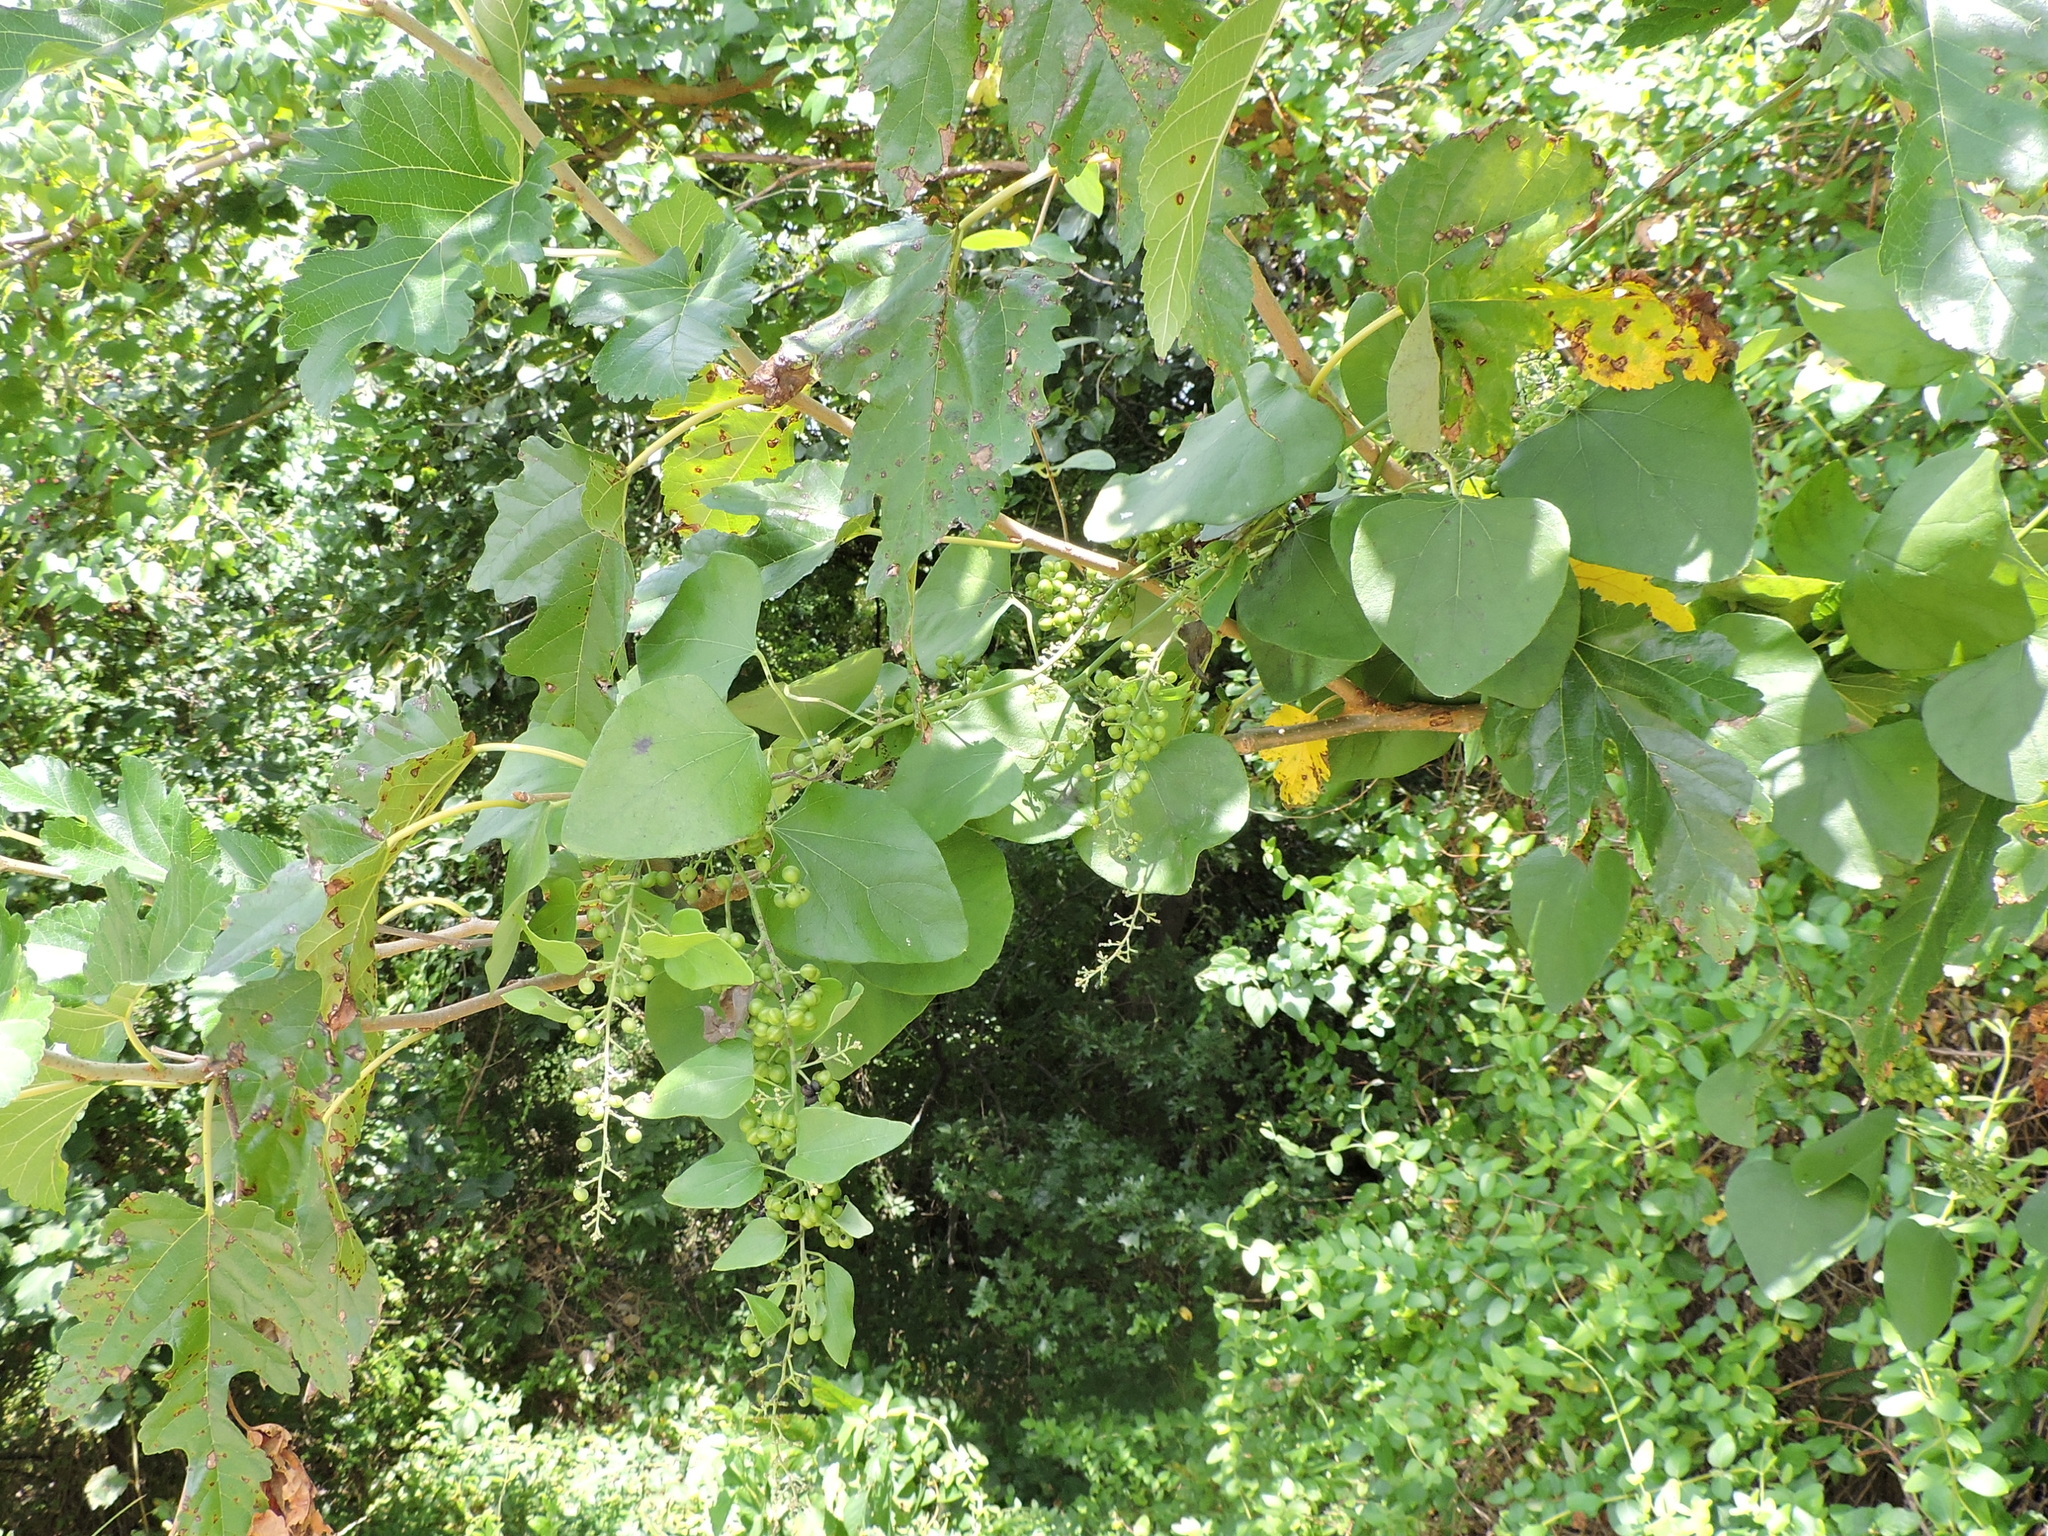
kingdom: Plantae
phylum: Tracheophyta
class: Magnoliopsida
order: Ranunculales
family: Menispermaceae
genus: Cocculus
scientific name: Cocculus carolinus
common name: Carolina moonseed
